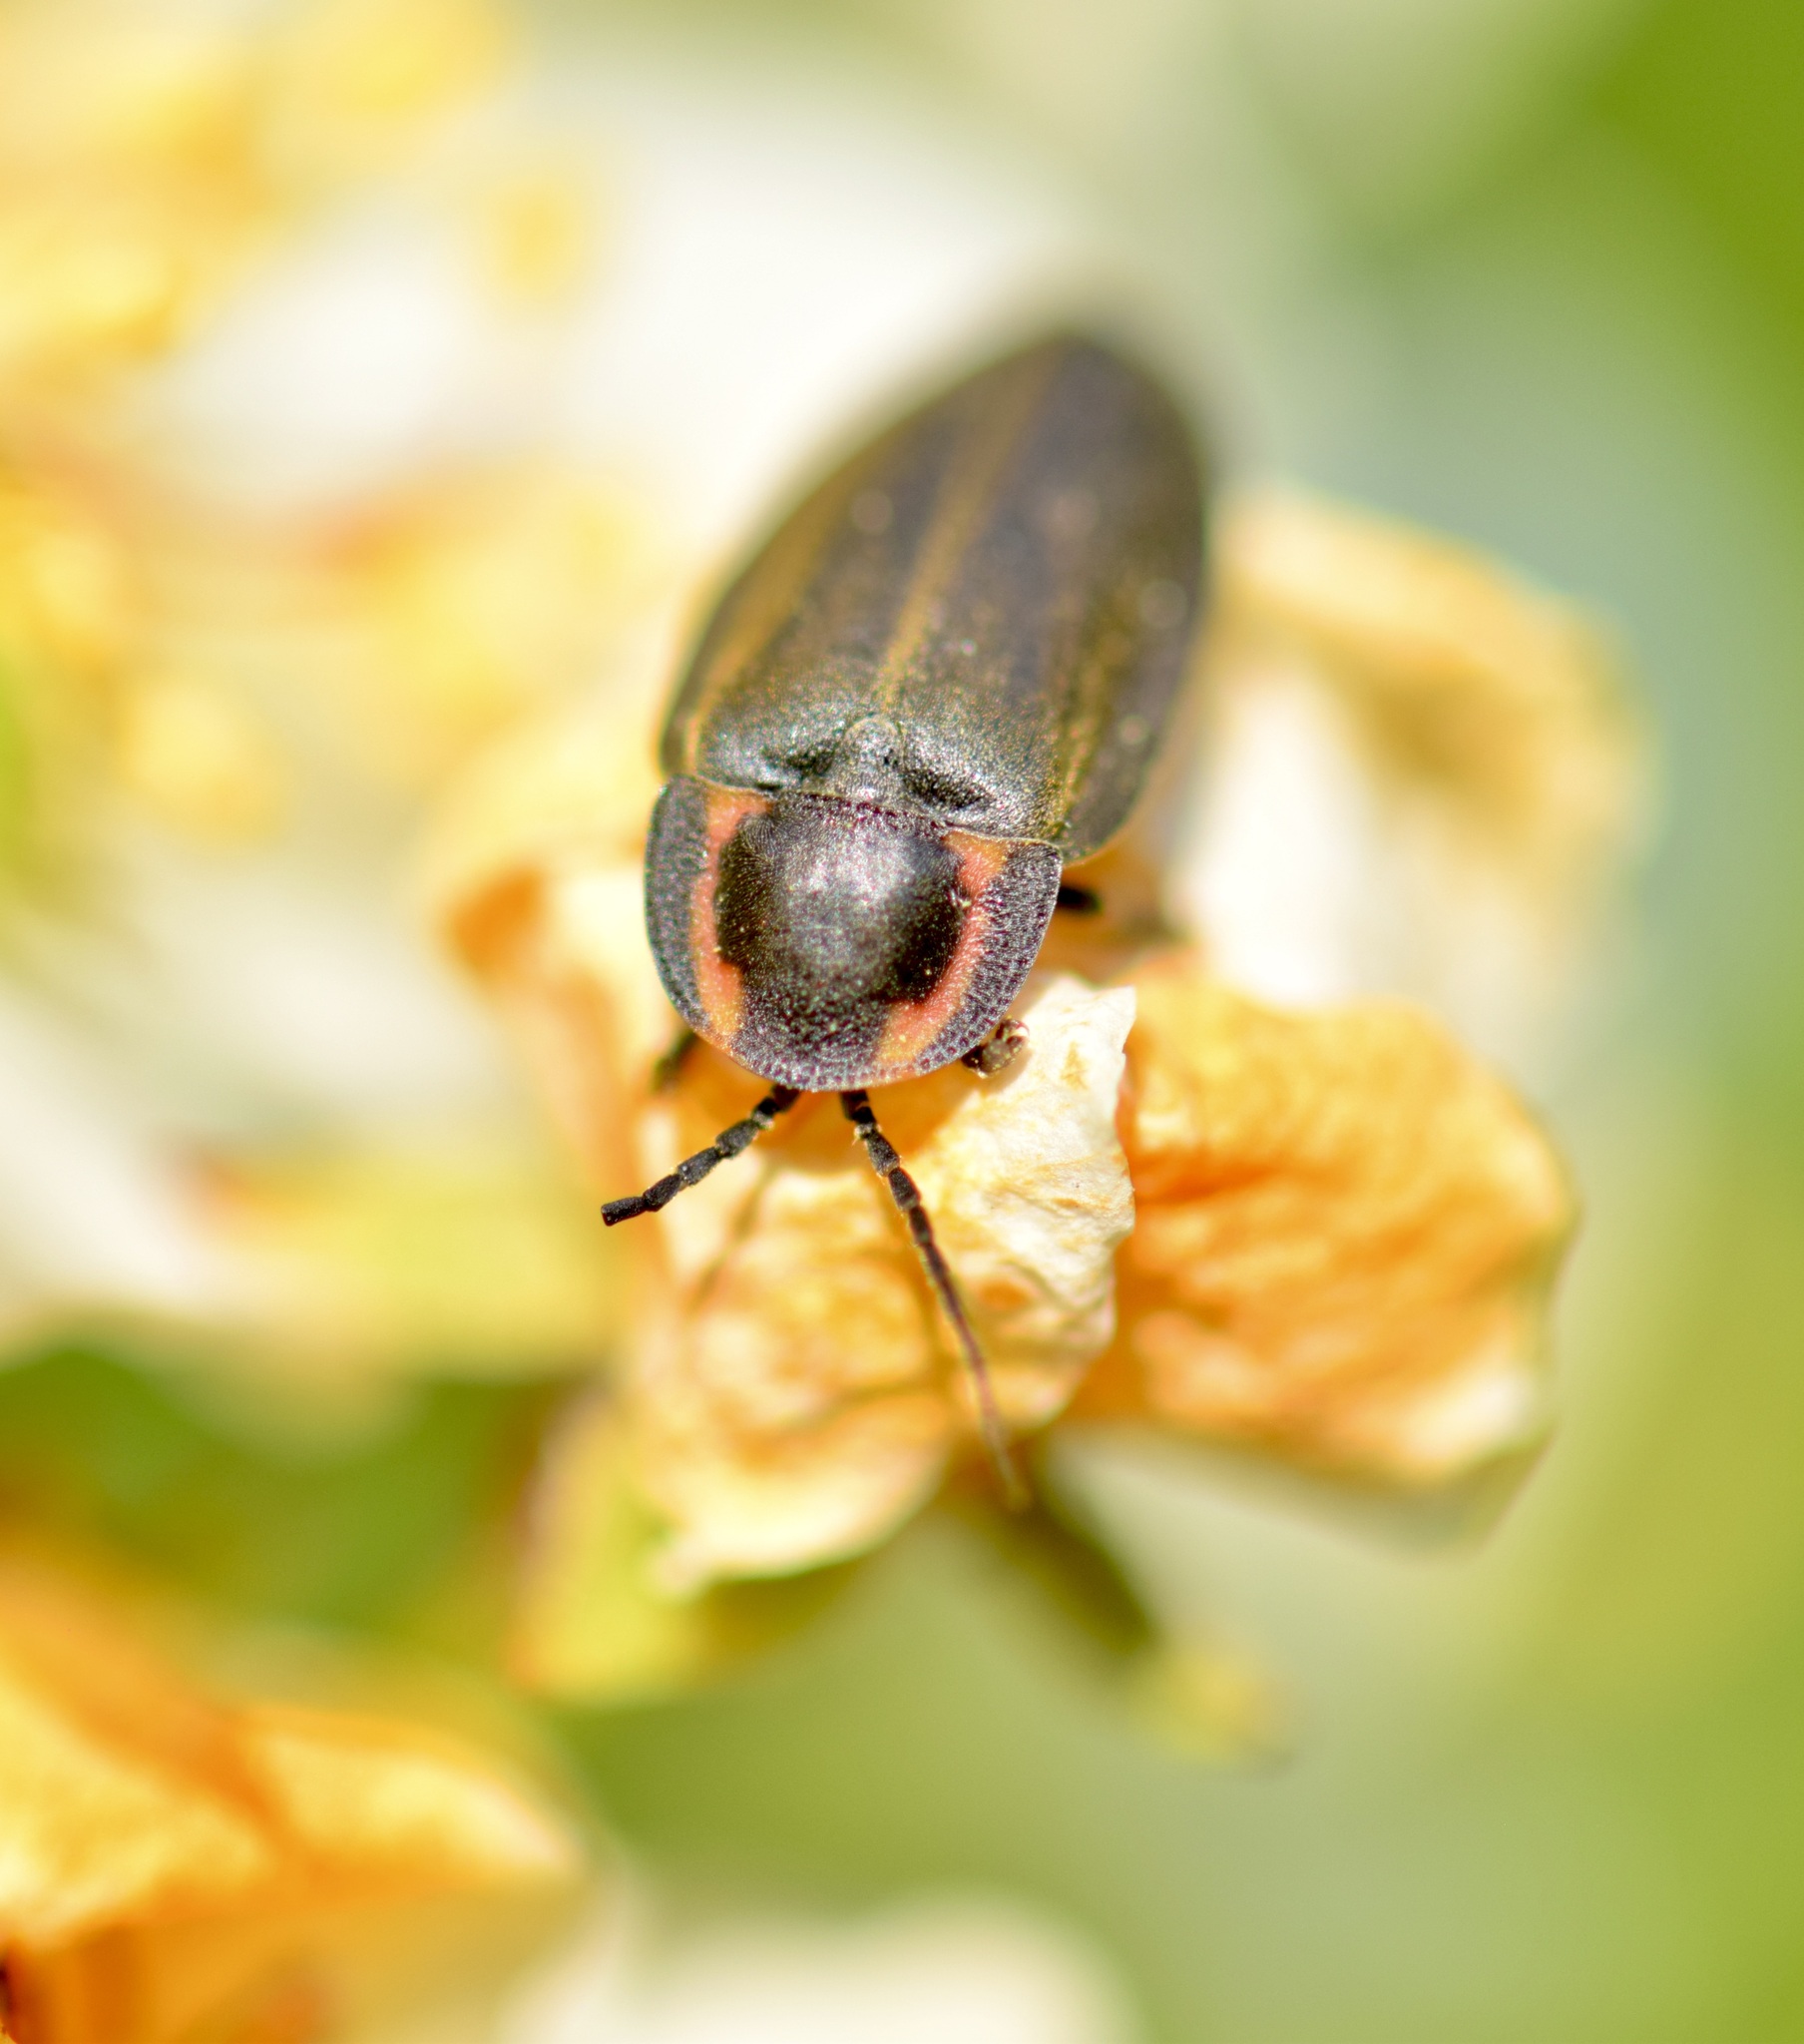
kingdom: Animalia
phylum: Arthropoda
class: Insecta
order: Coleoptera
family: Lampyridae
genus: Photinus
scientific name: Photinus corrusca
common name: Winter firefly
